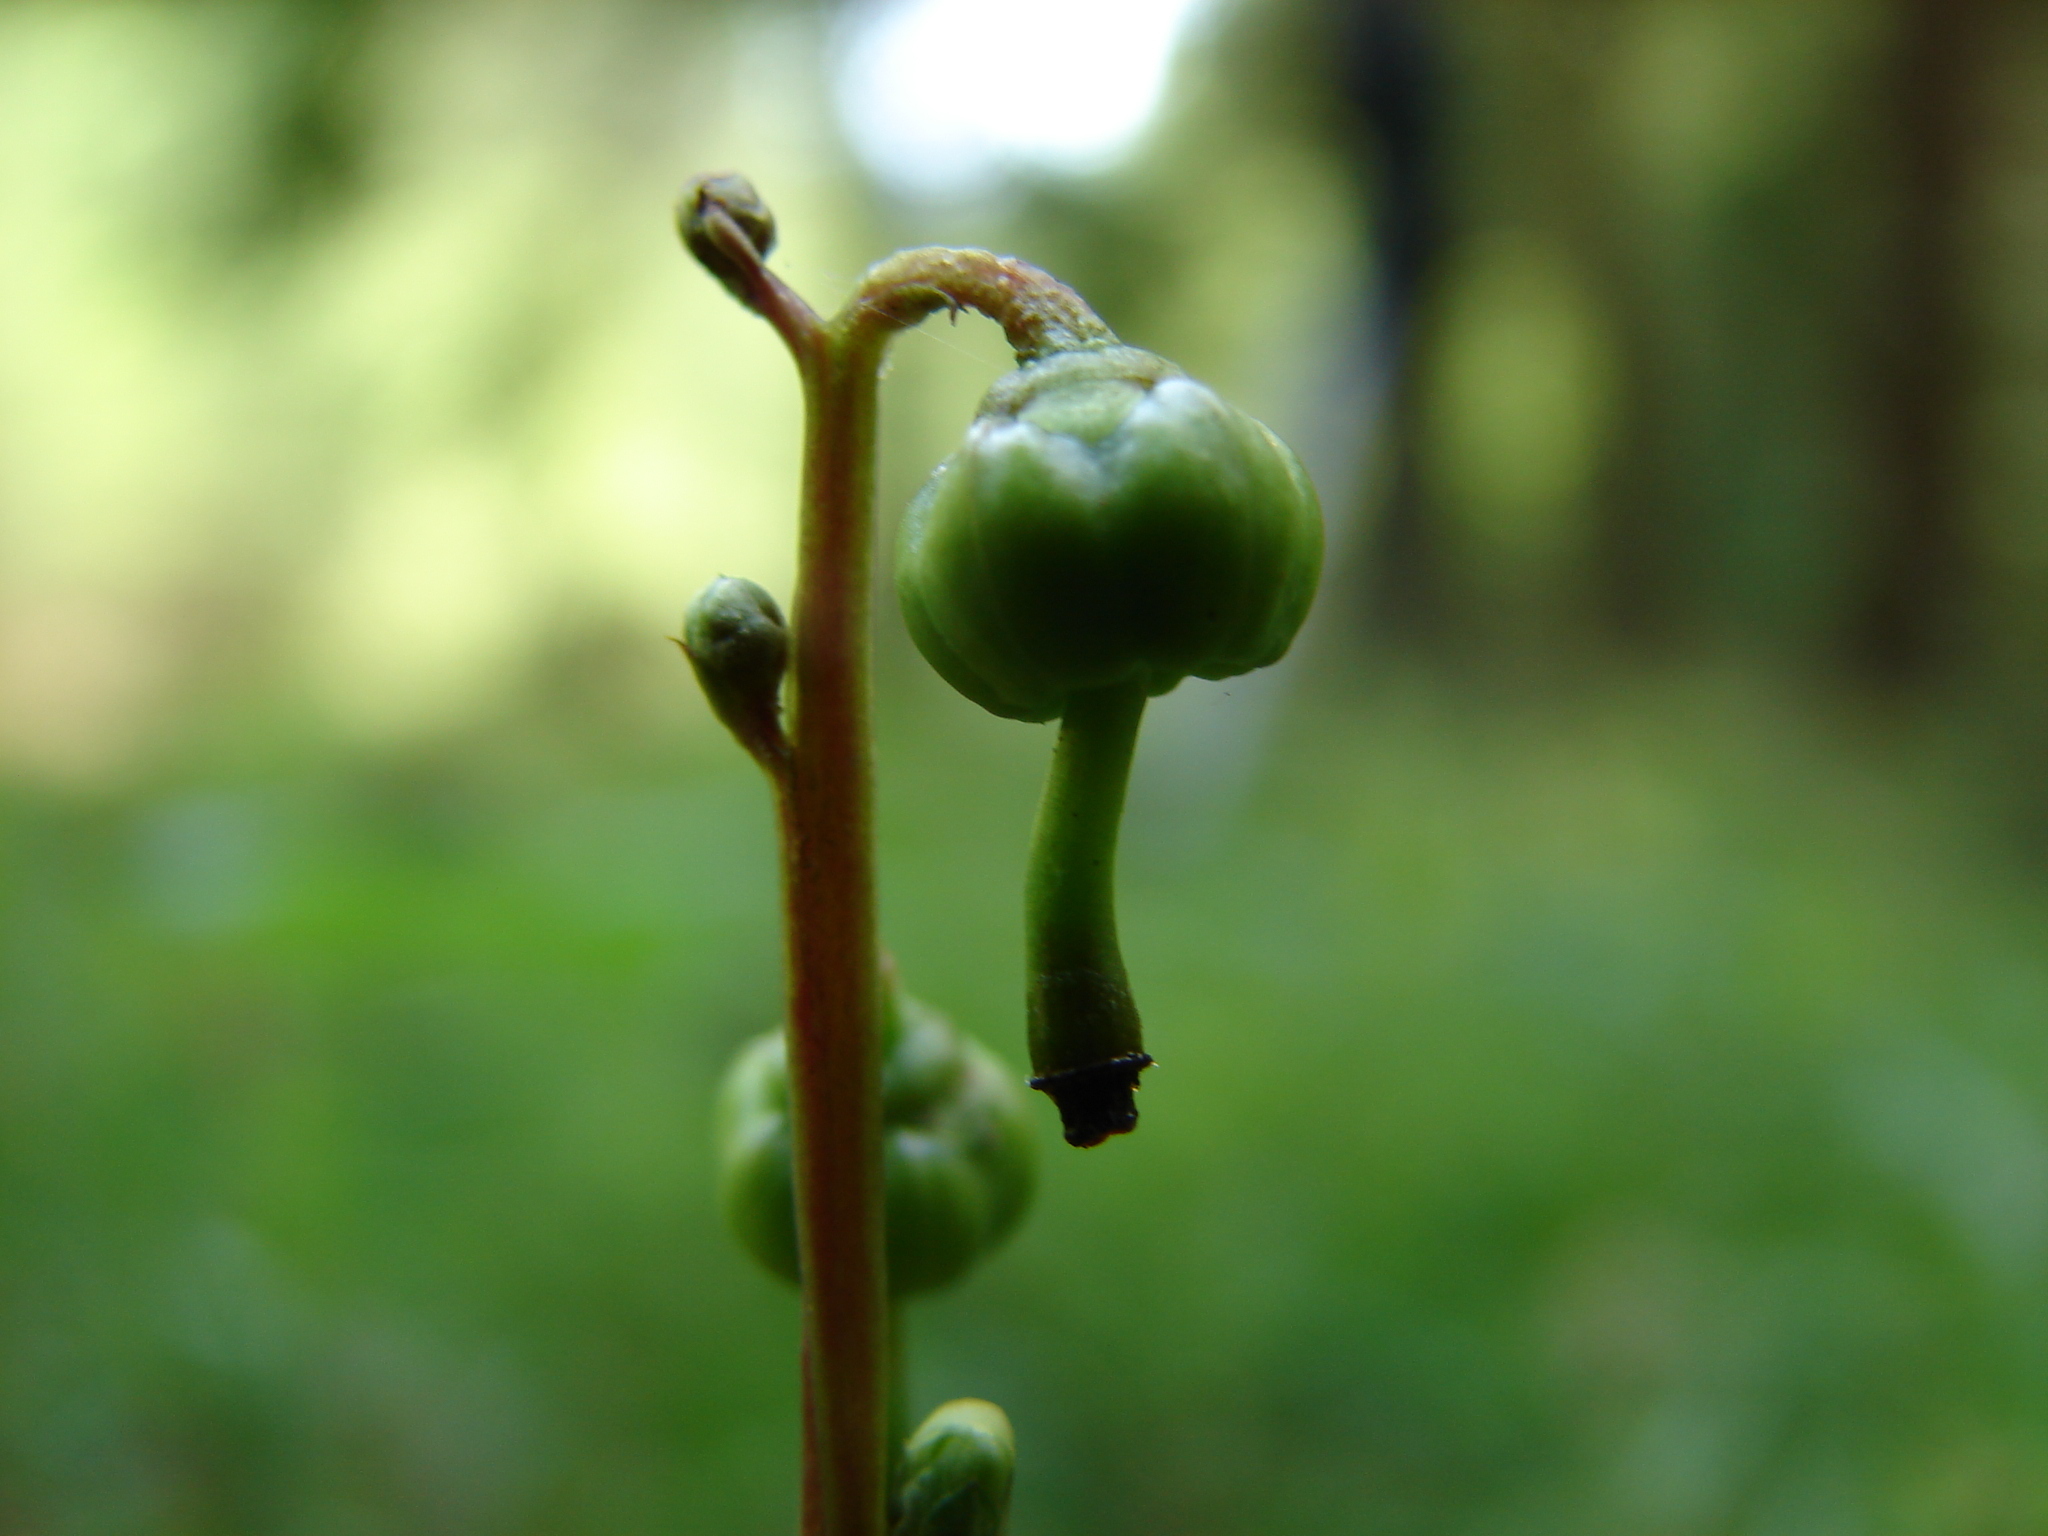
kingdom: Plantae
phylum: Tracheophyta
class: Magnoliopsida
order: Ericales
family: Ericaceae
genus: Pyrola
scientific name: Pyrola chlorantha
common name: Green wintergreen
